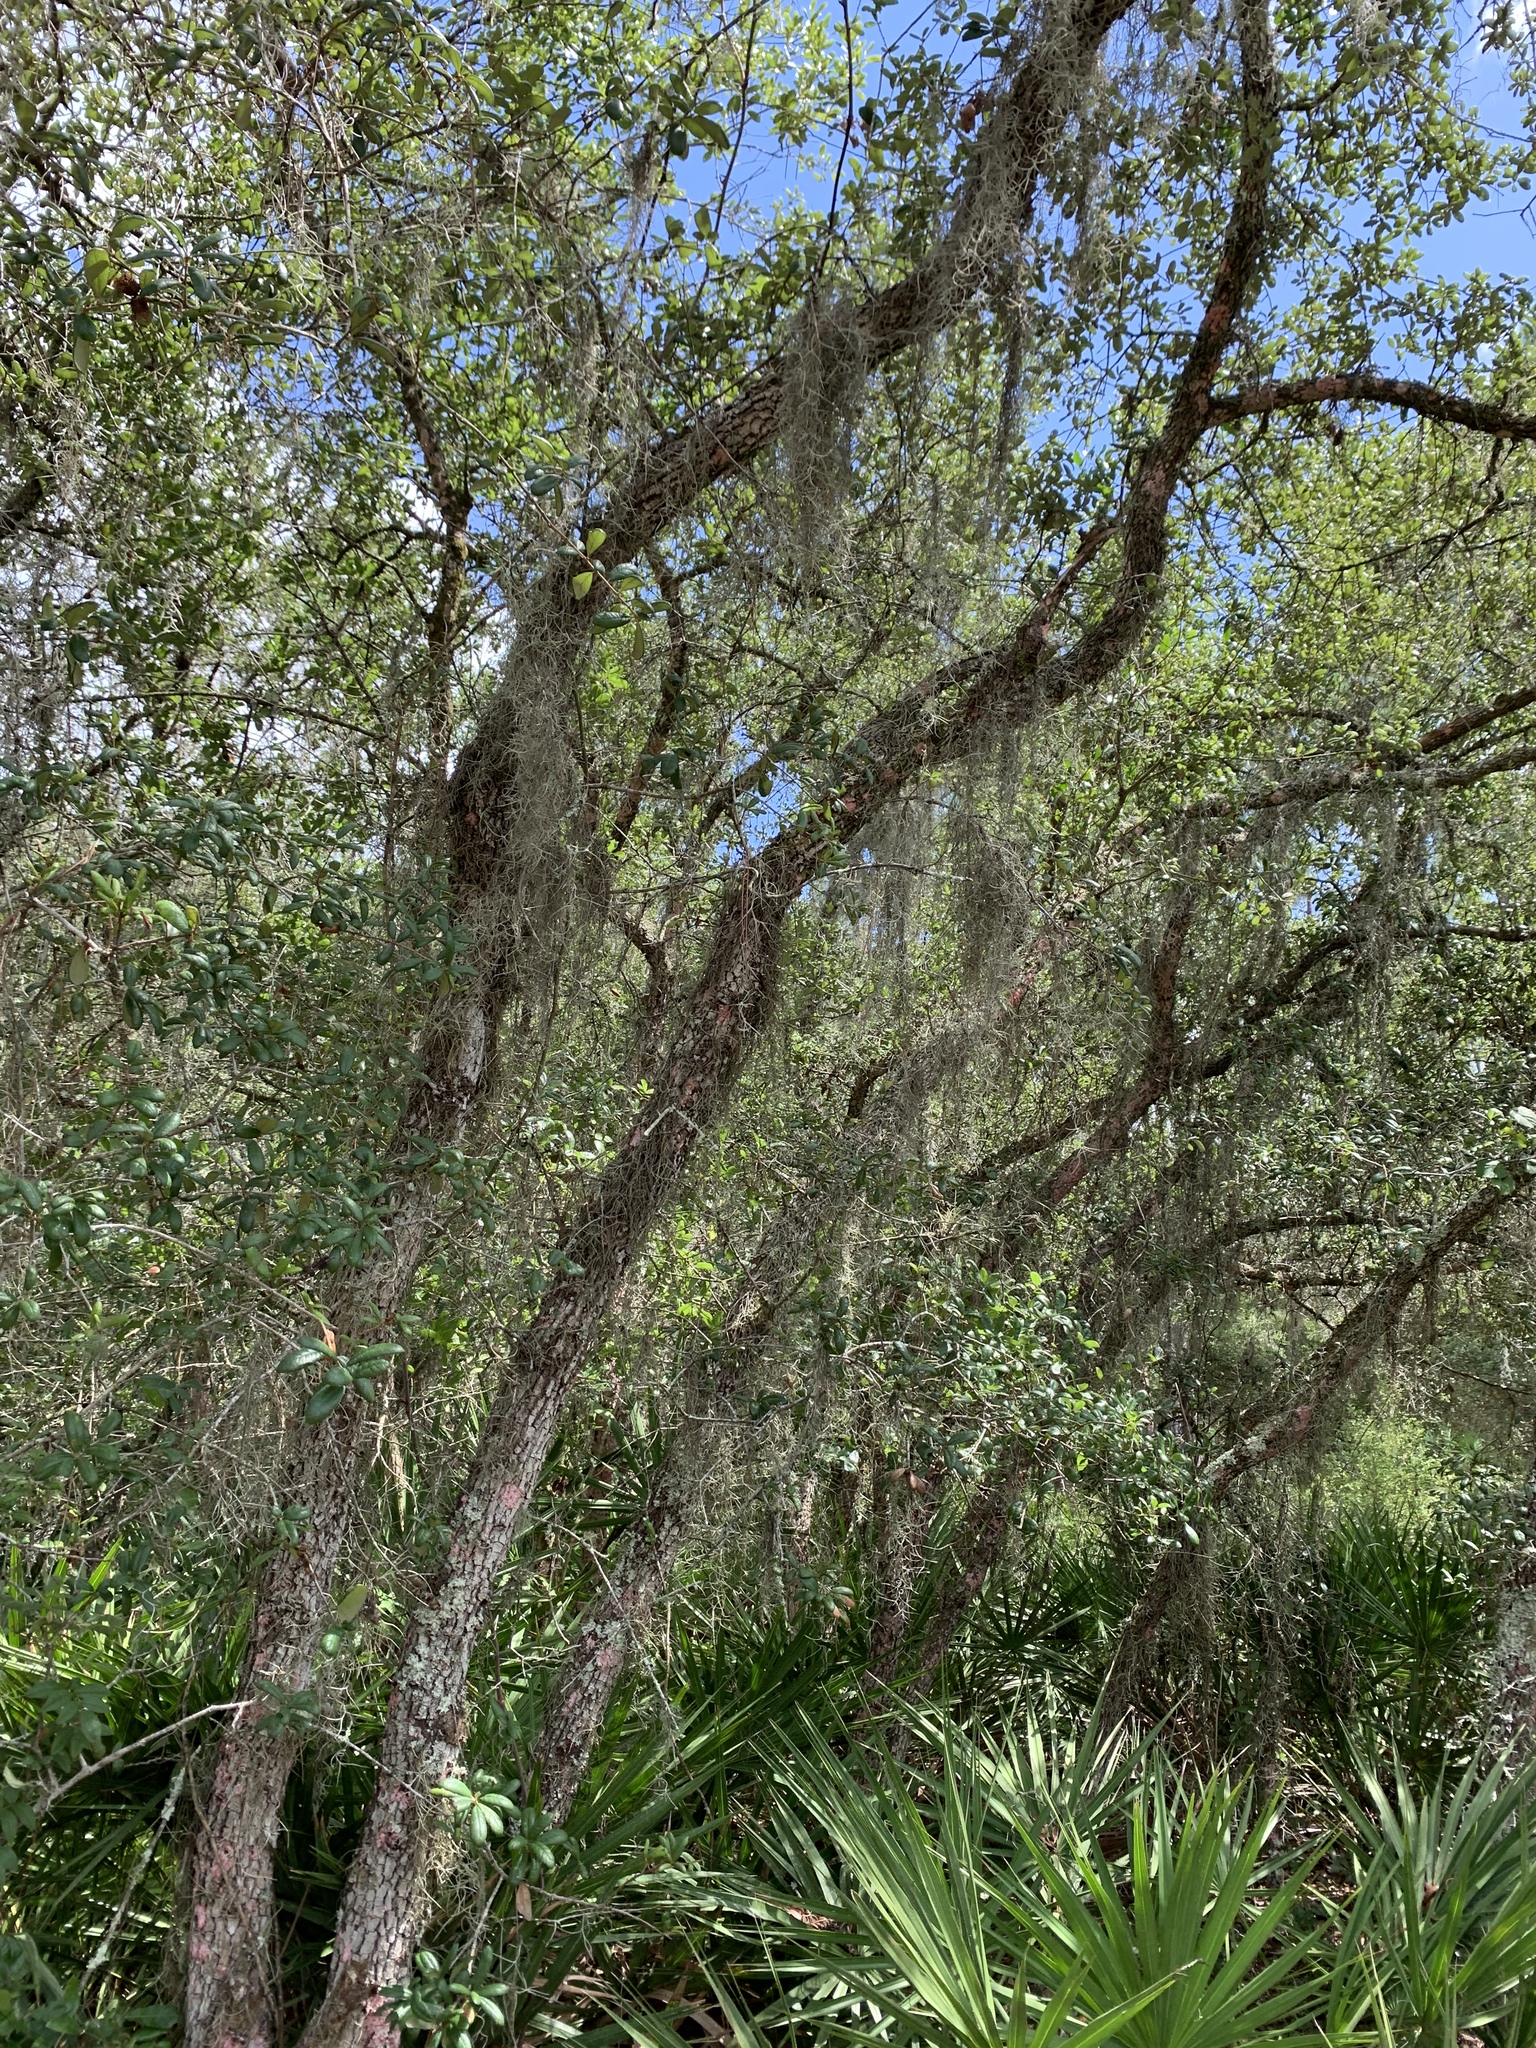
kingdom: Plantae
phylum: Tracheophyta
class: Liliopsida
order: Poales
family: Bromeliaceae
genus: Tillandsia
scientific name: Tillandsia usneoides
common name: Spanish moss
